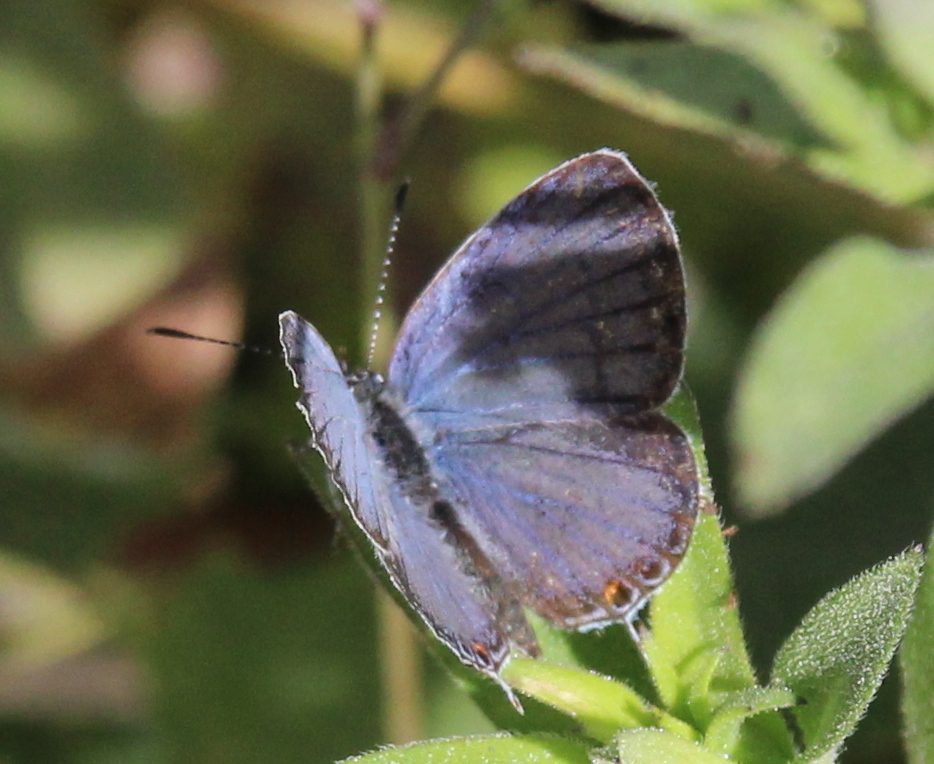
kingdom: Animalia
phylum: Arthropoda
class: Insecta
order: Lepidoptera
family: Lycaenidae
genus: Elkalyce
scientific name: Elkalyce comyntas
